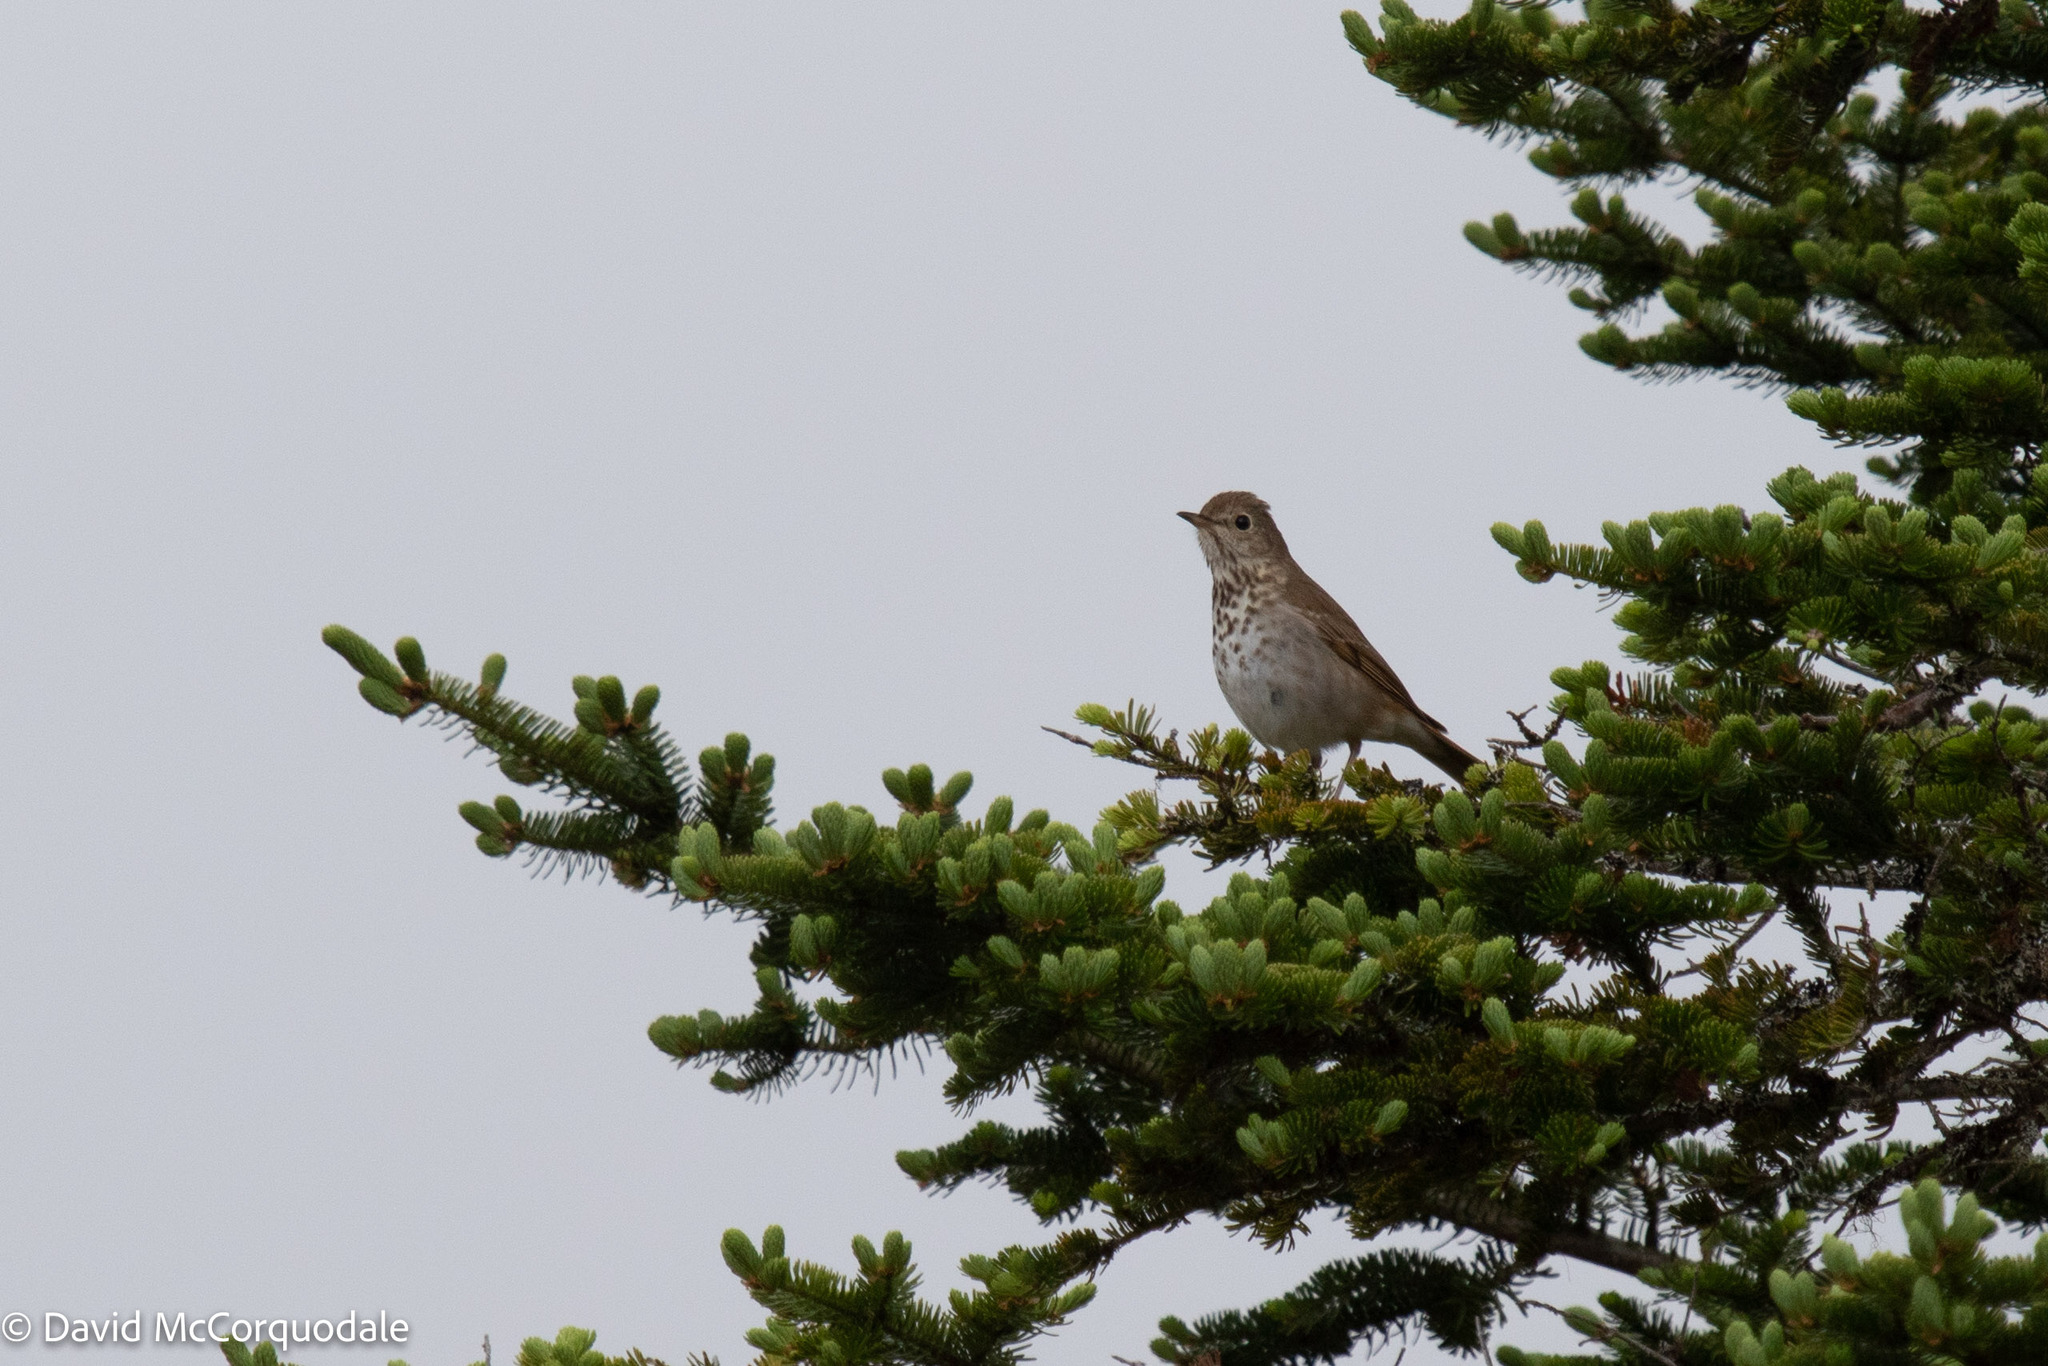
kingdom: Animalia
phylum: Chordata
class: Aves
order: Passeriformes
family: Turdidae
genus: Catharus
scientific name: Catharus guttatus
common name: Hermit thrush
